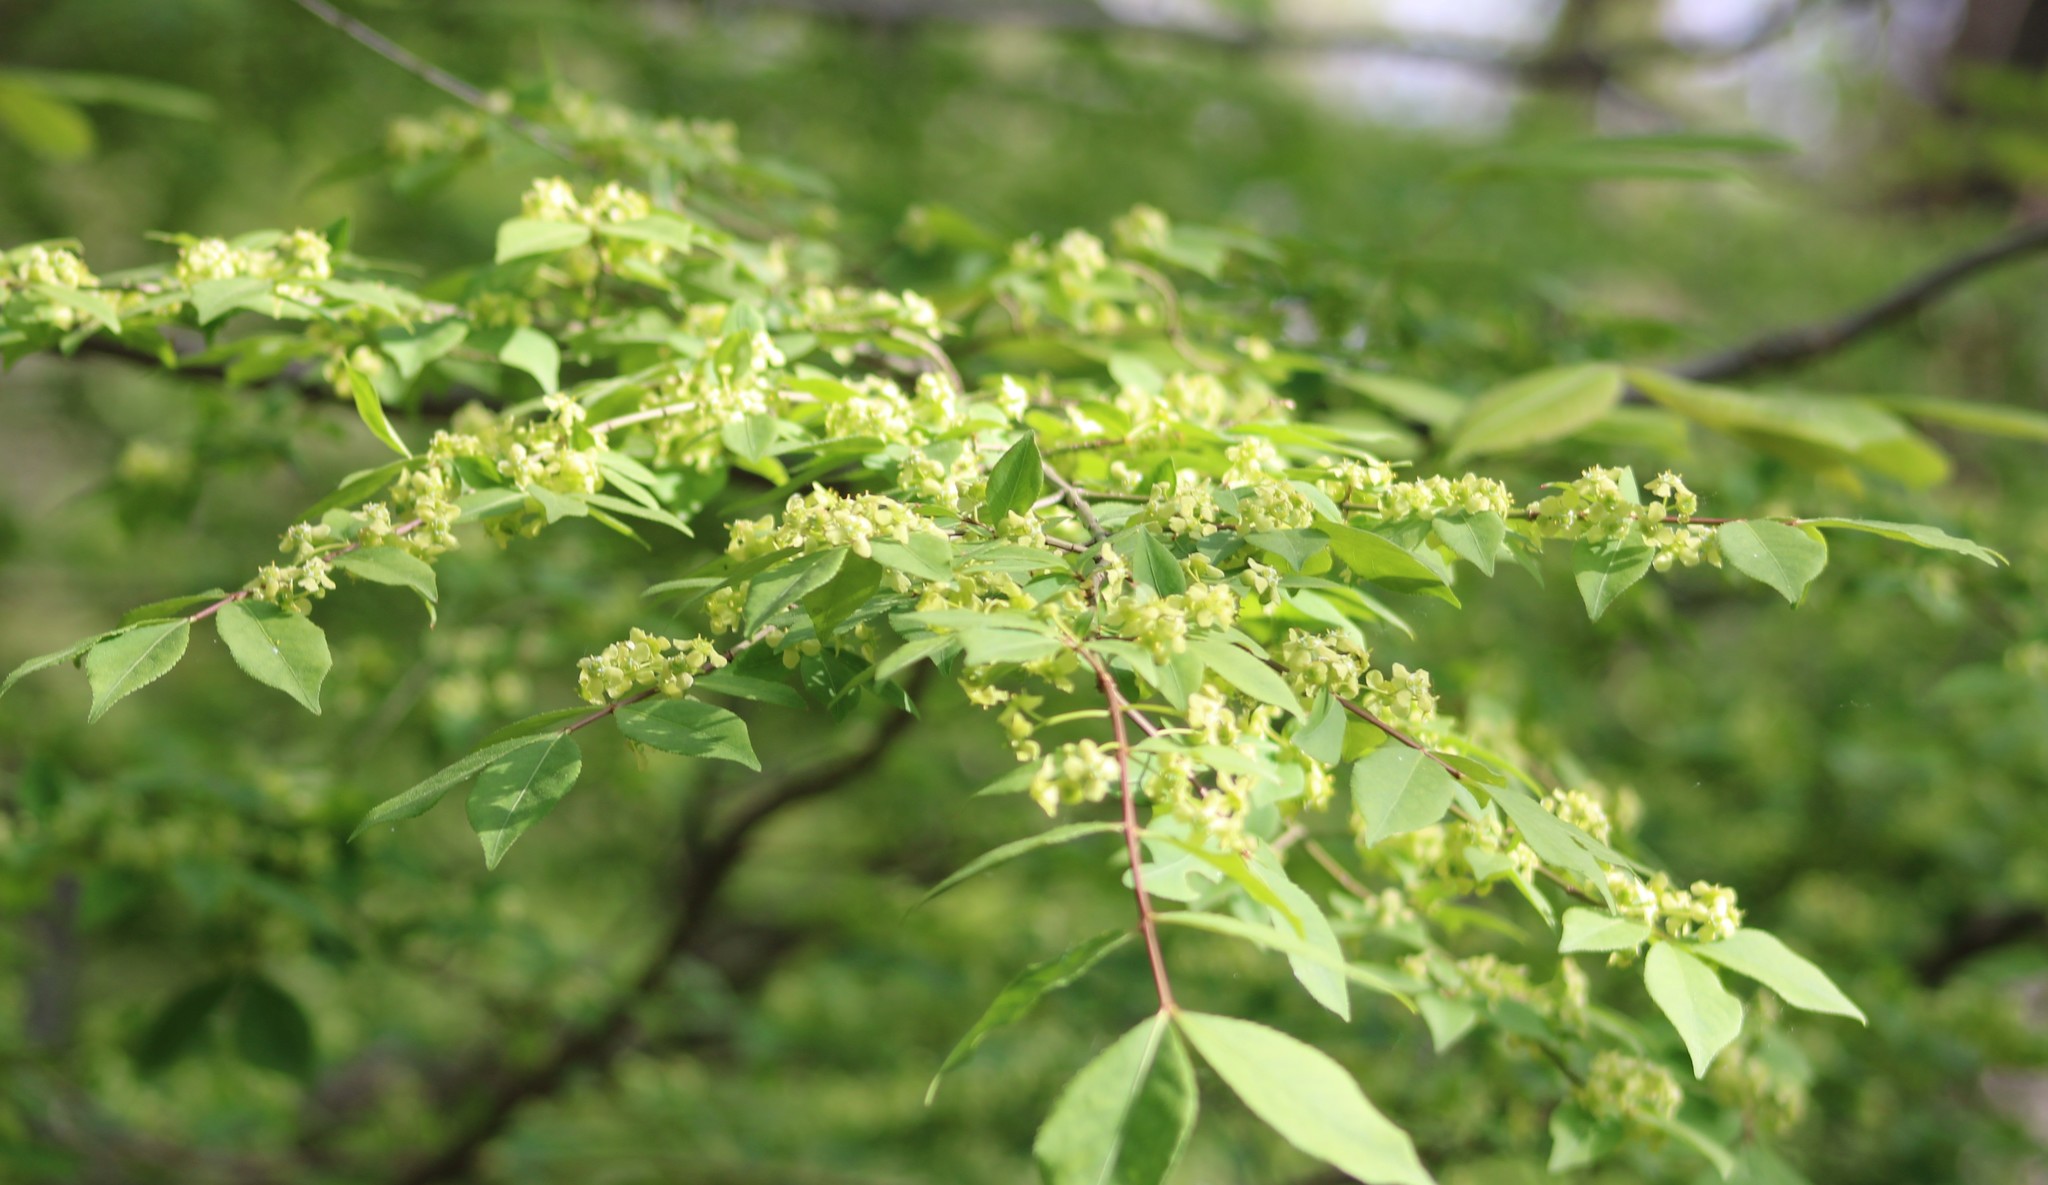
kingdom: Plantae
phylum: Tracheophyta
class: Magnoliopsida
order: Celastrales
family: Celastraceae
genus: Euonymus
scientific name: Euonymus alatus
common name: Winged euonymus
